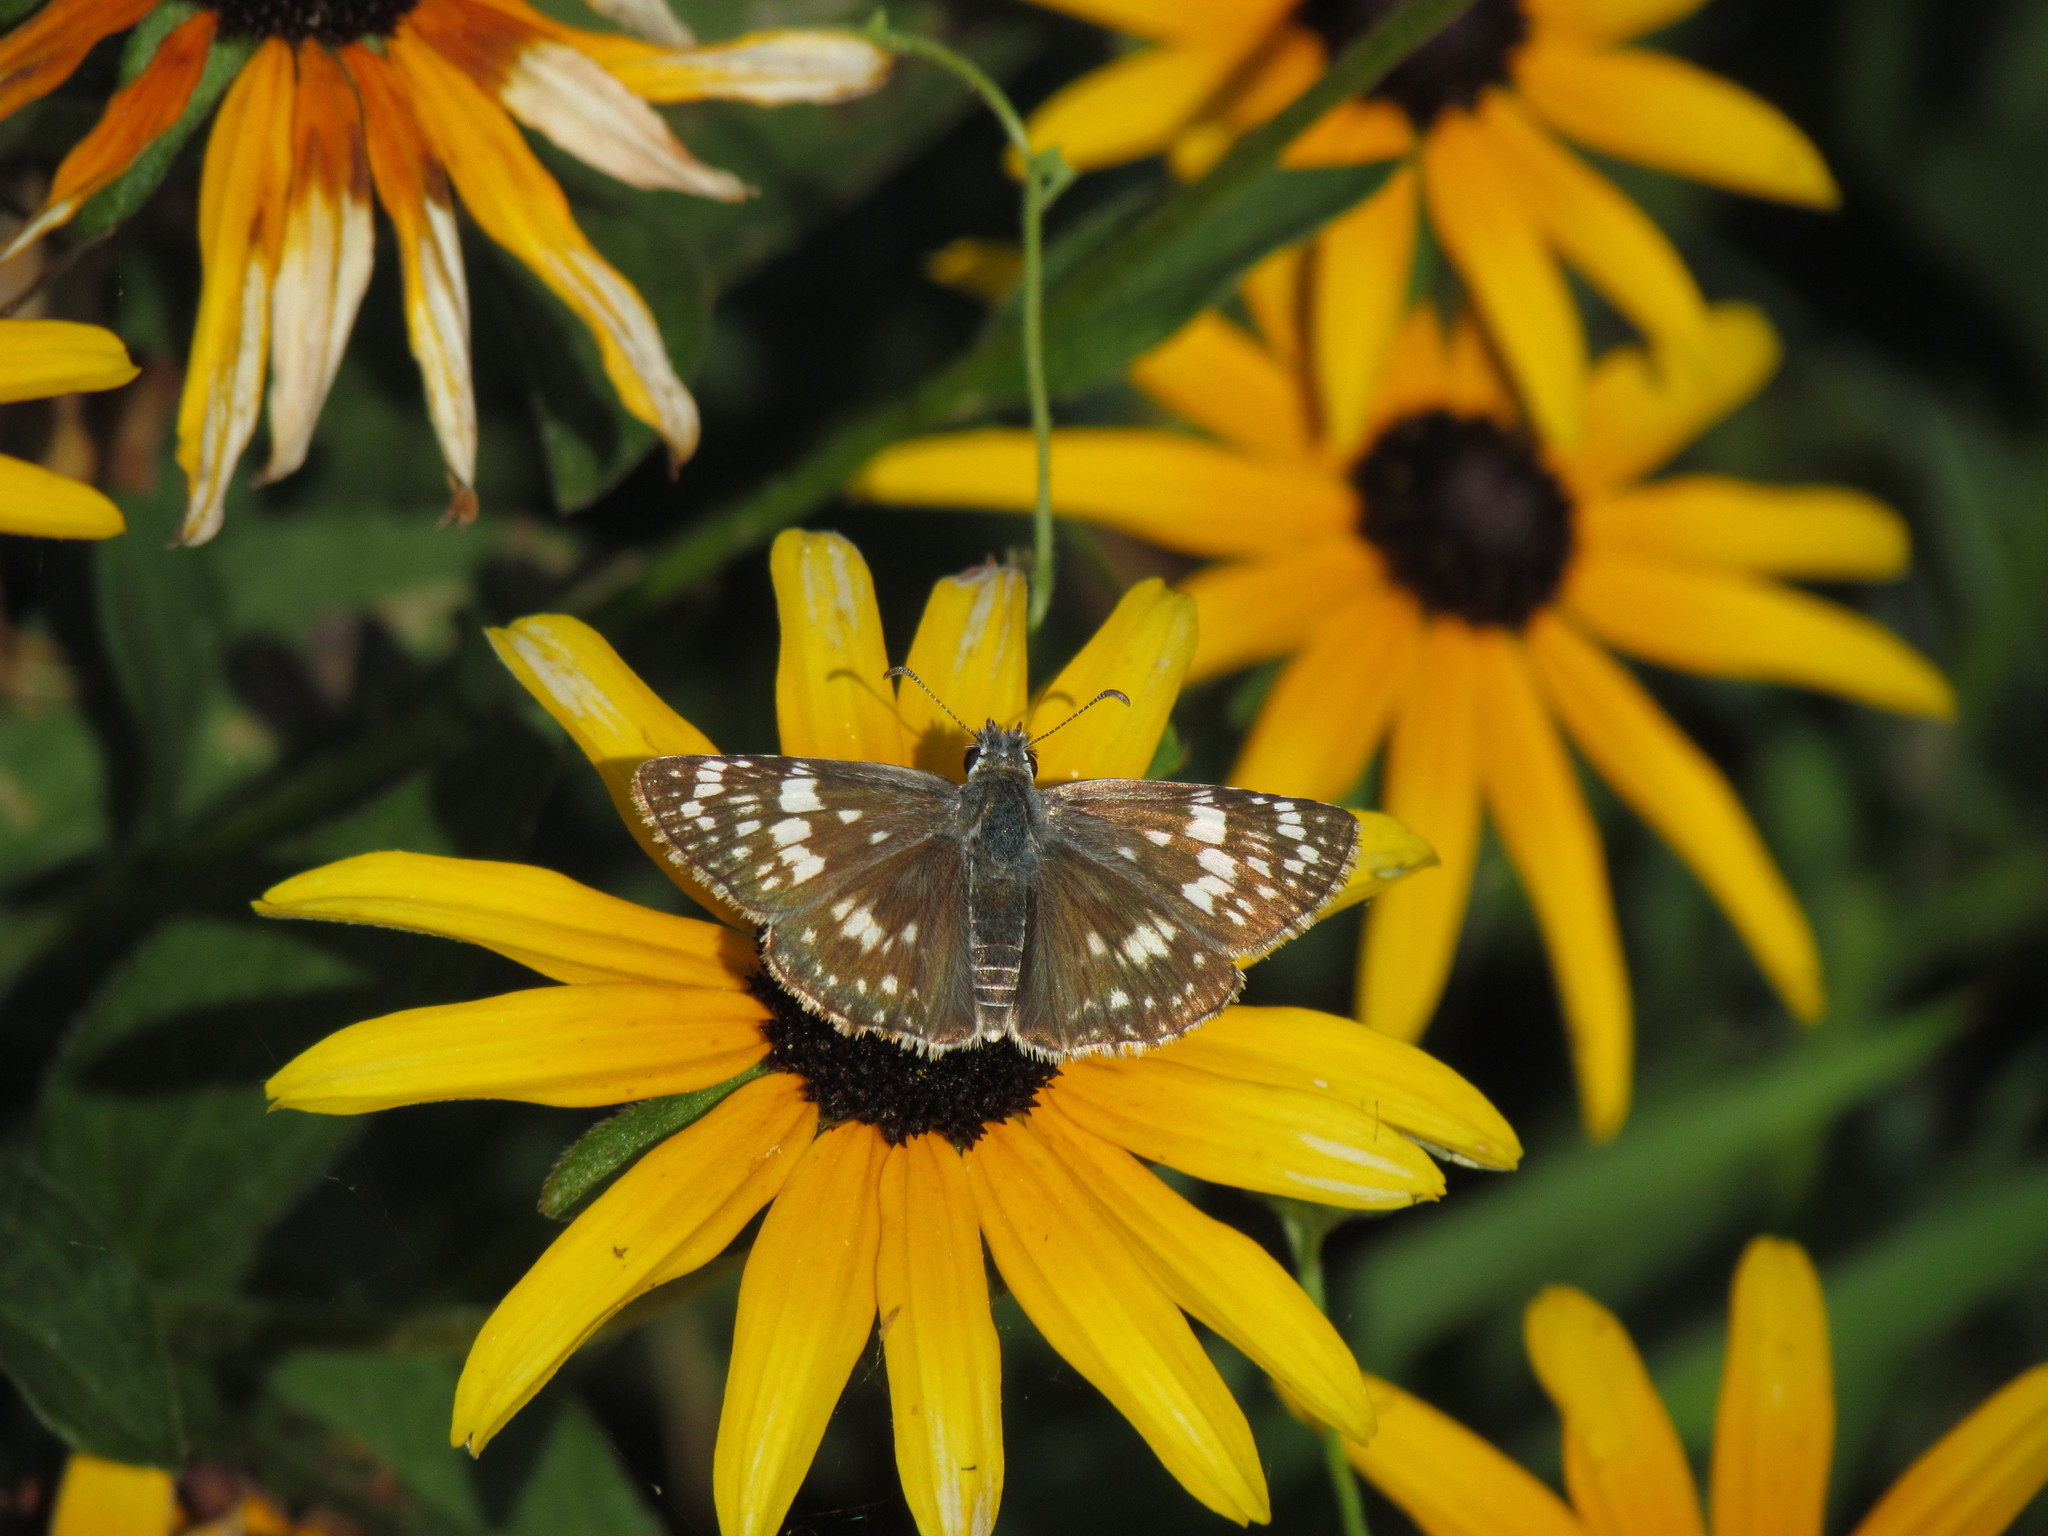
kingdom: Animalia
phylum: Arthropoda
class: Insecta
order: Lepidoptera
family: Hesperiidae
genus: Burnsius
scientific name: Burnsius communis
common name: Common checkered-skipper
